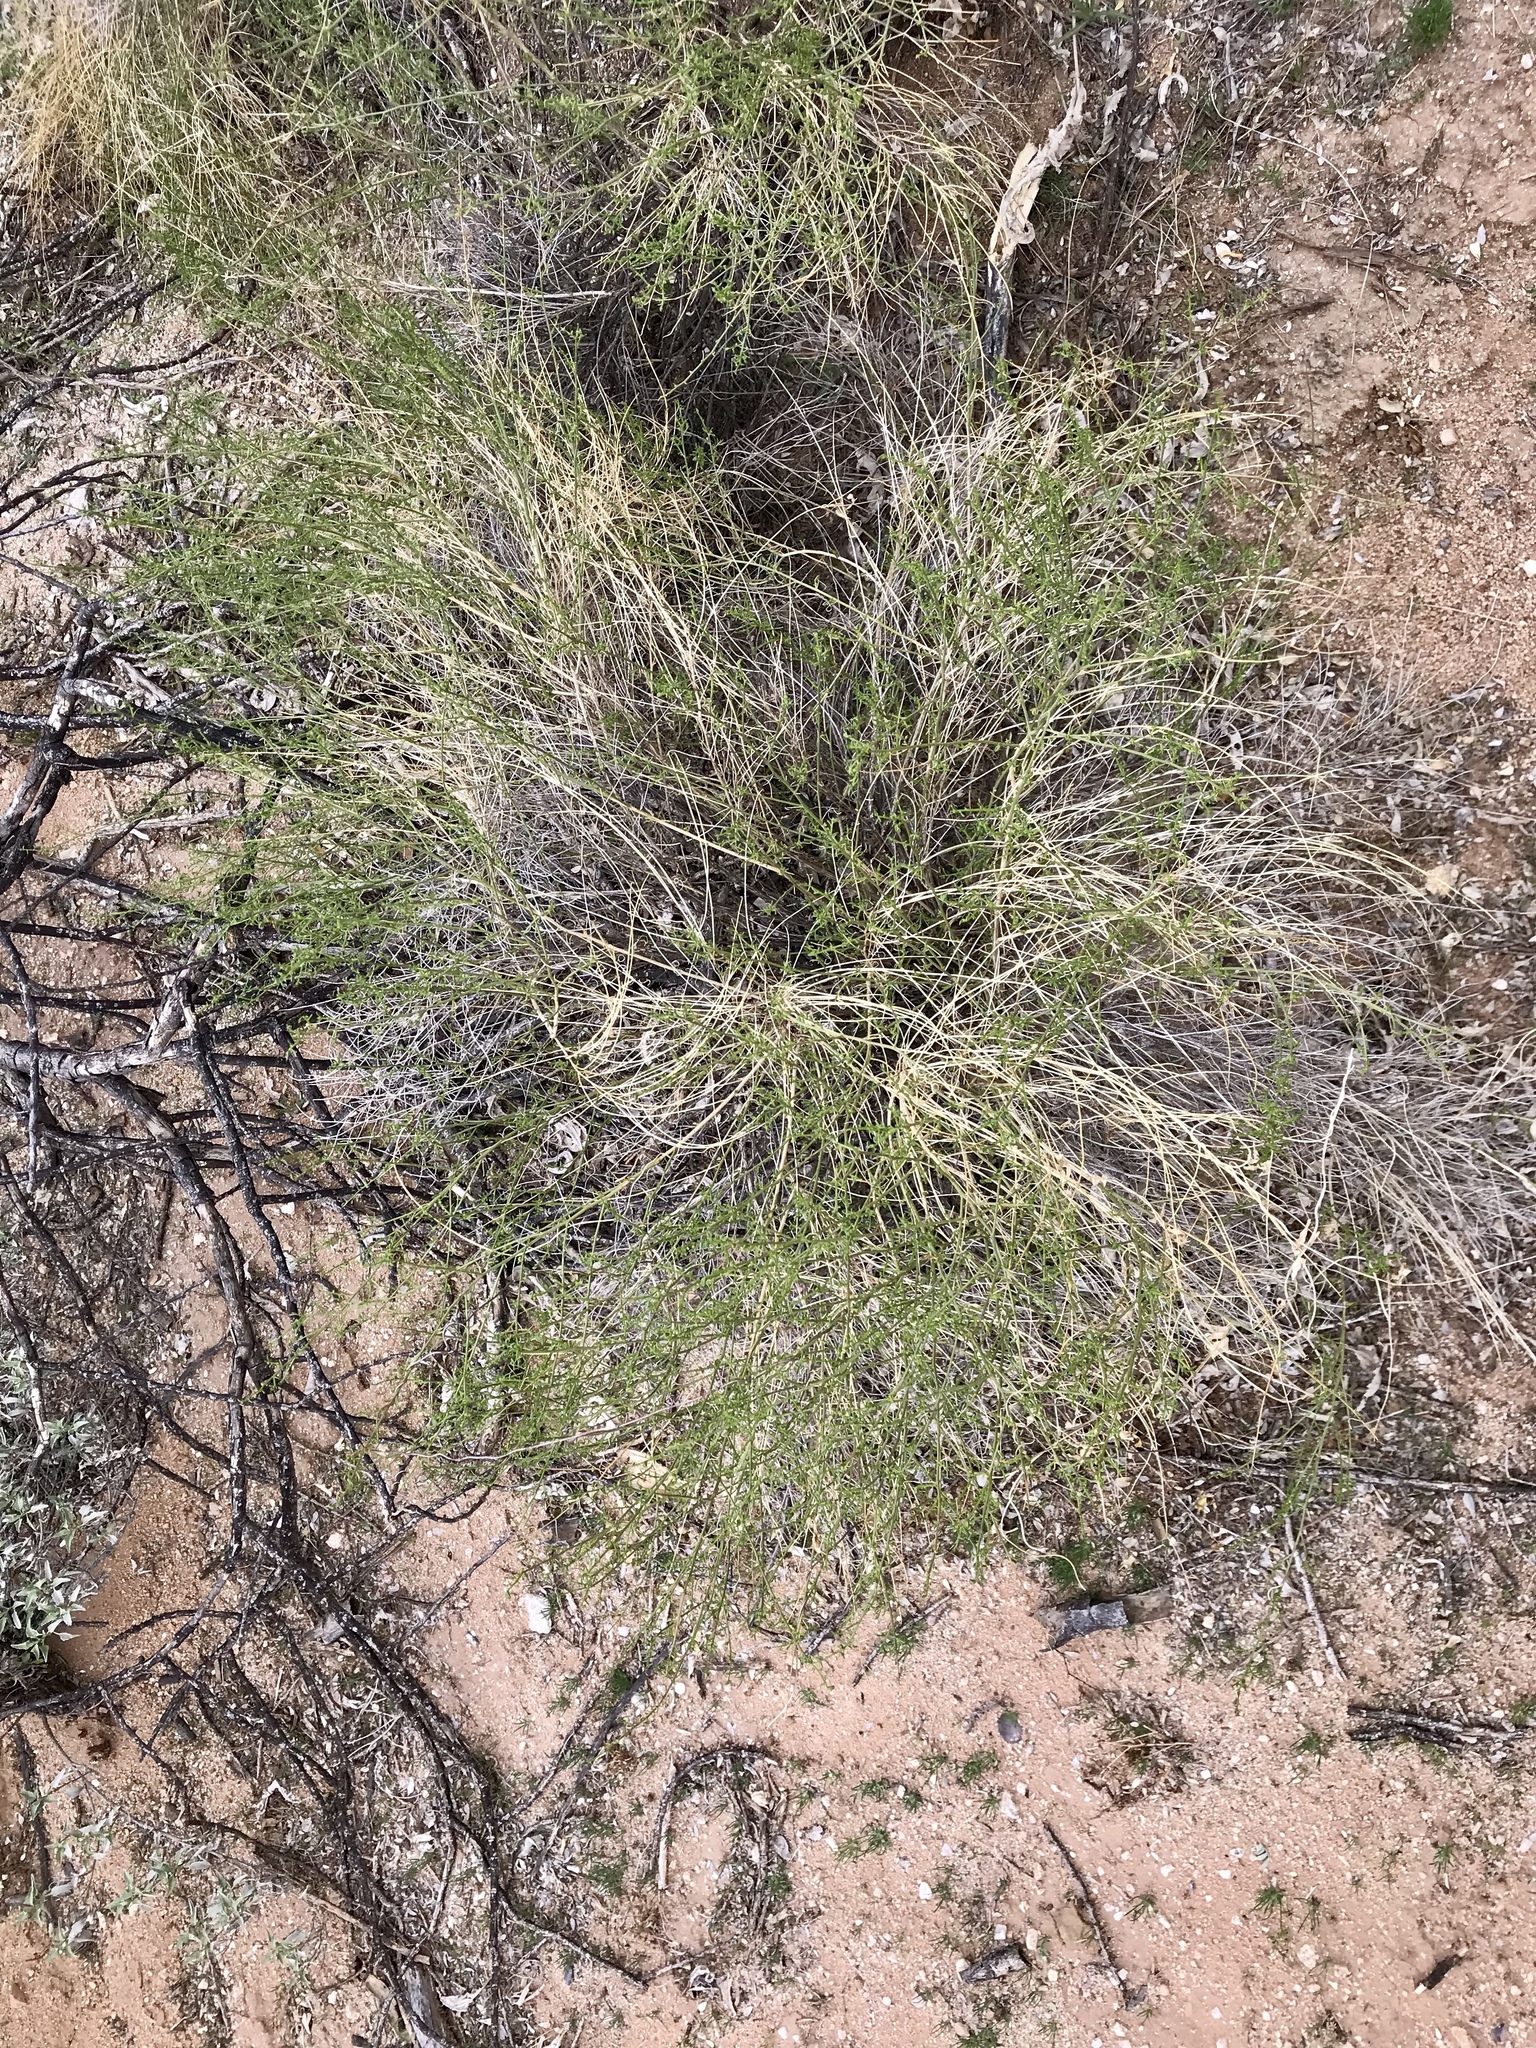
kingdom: Plantae
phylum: Tracheophyta
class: Magnoliopsida
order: Asterales
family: Asteraceae
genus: Ambrosia
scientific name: Ambrosia salsola
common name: Burrobrush
